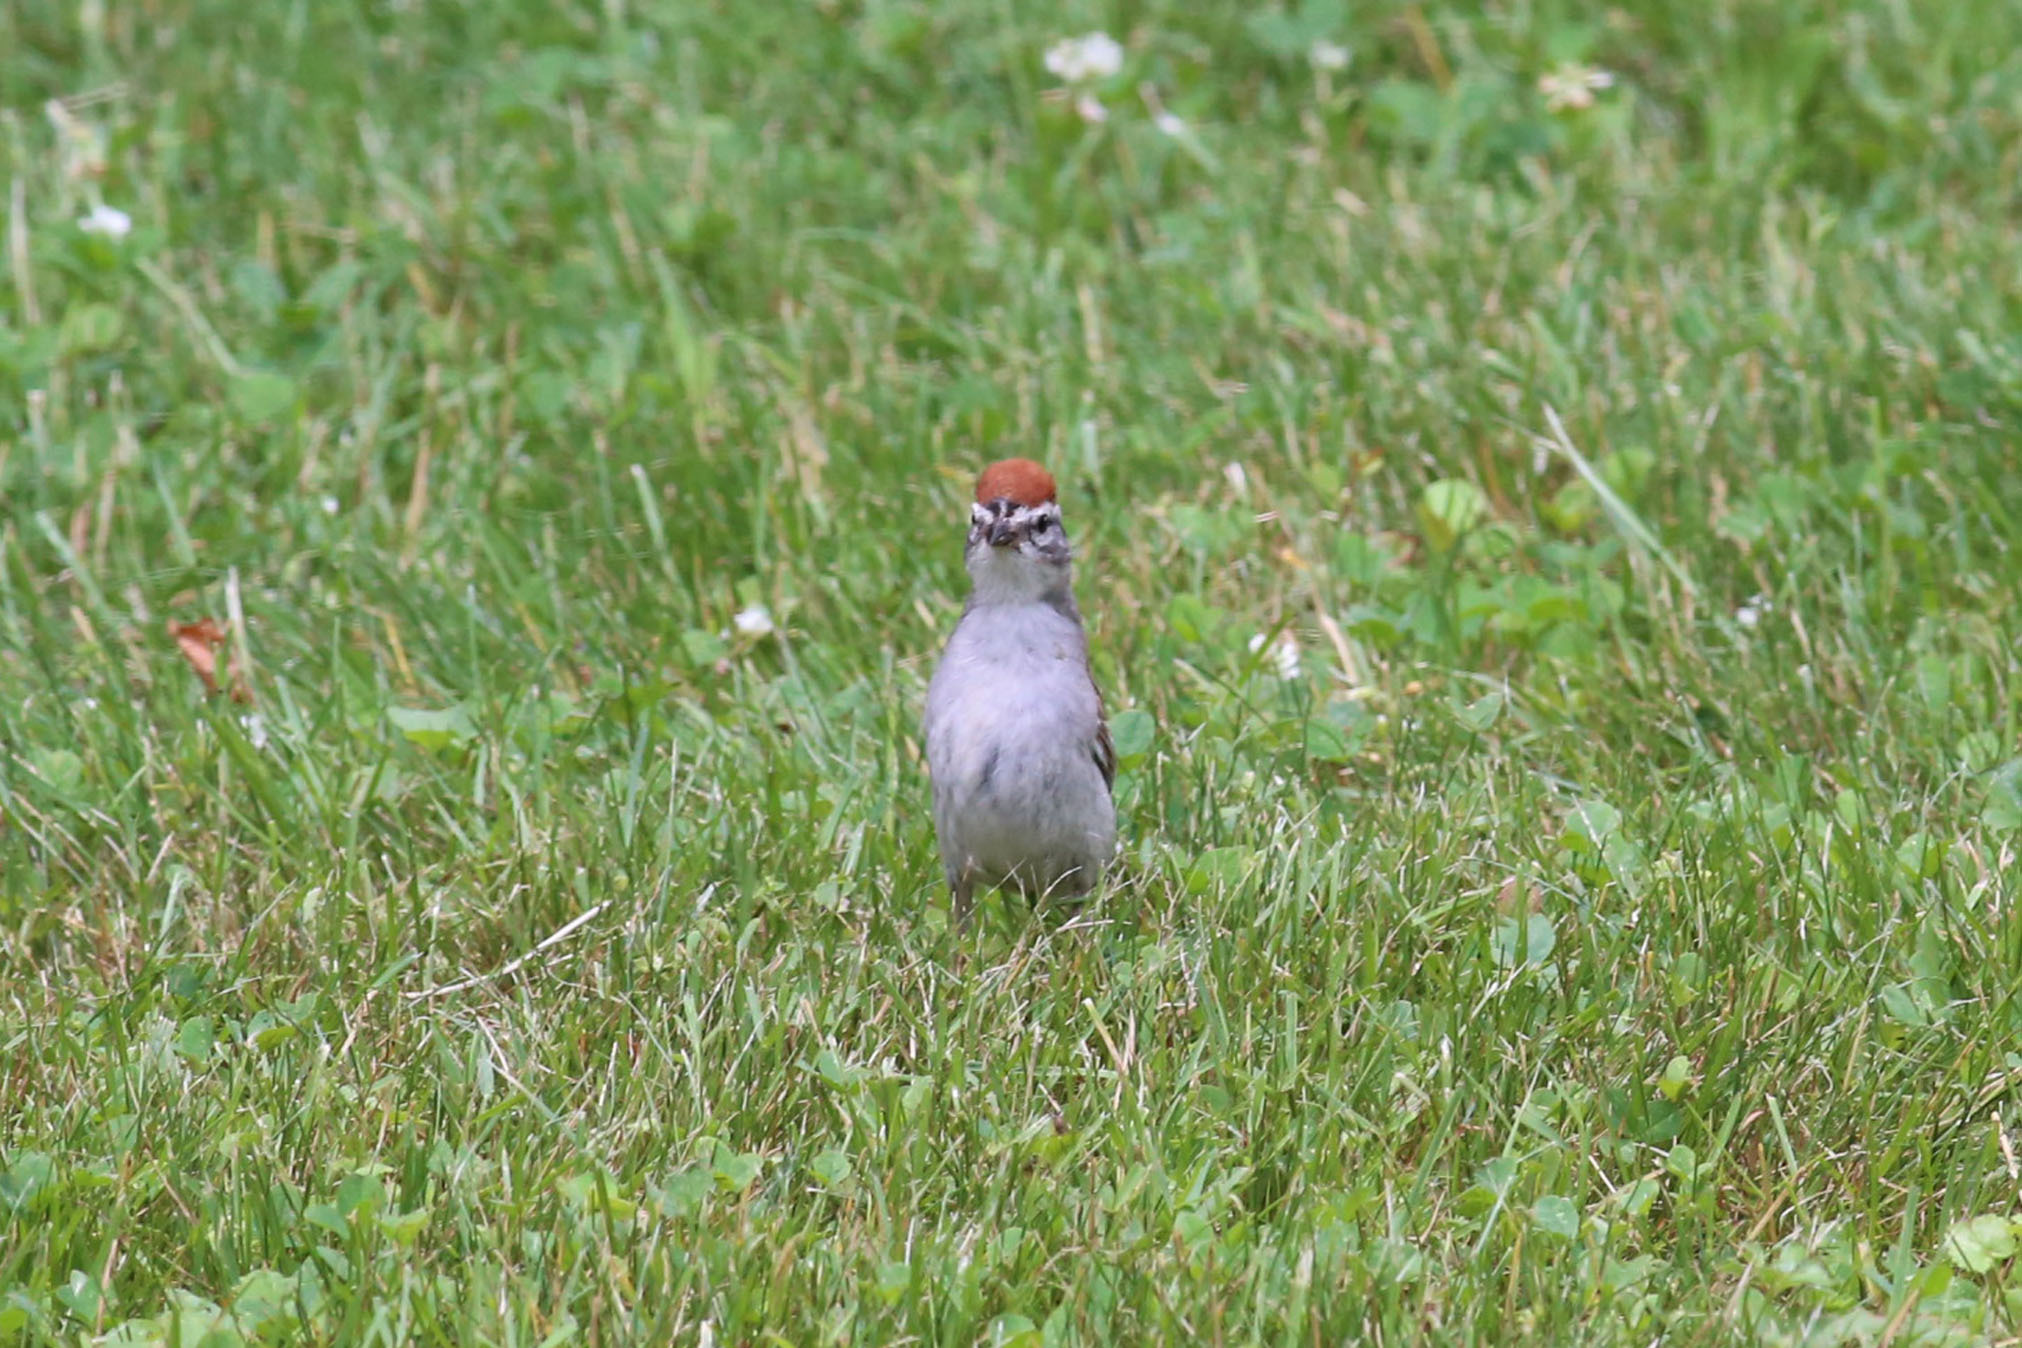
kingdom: Animalia
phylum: Chordata
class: Aves
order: Passeriformes
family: Passerellidae
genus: Spizella
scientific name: Spizella passerina
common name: Chipping sparrow
